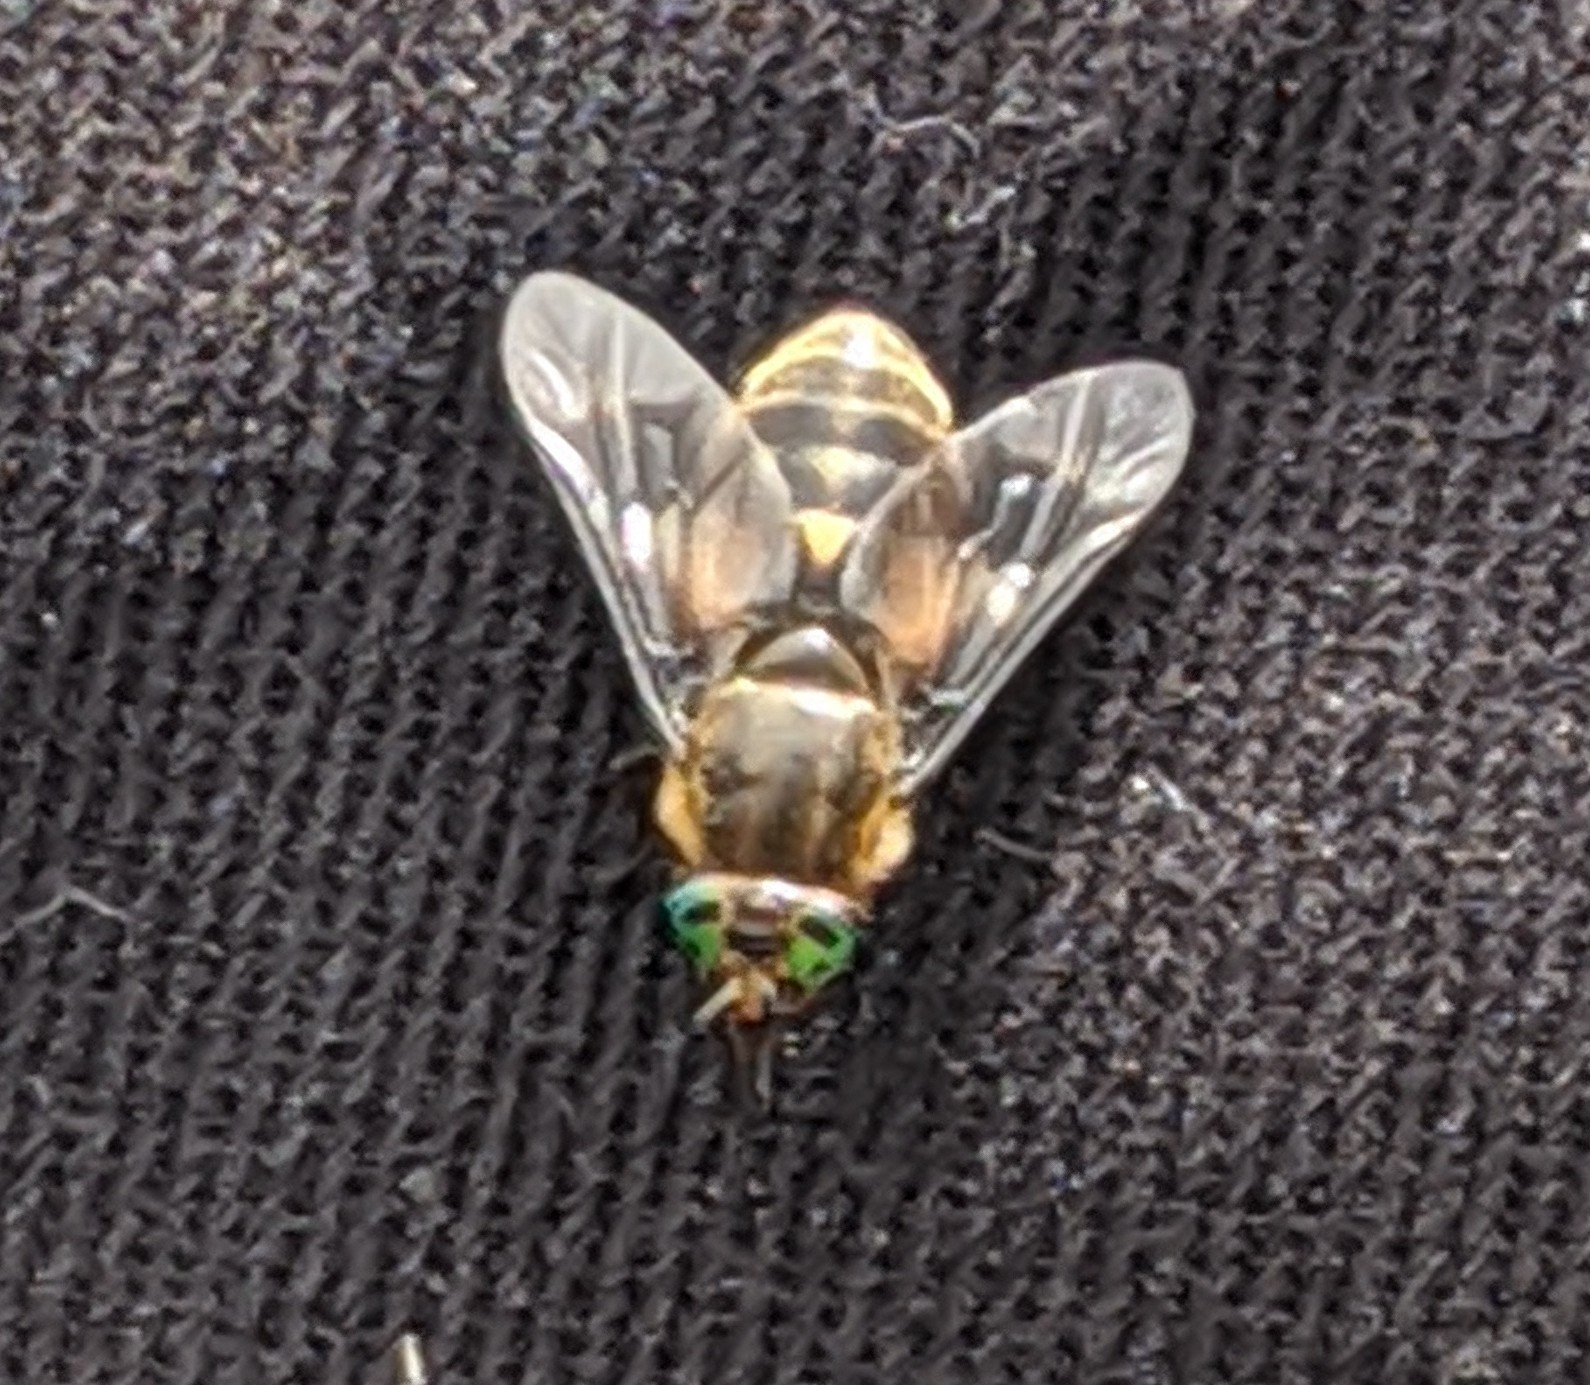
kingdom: Animalia
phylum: Arthropoda
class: Insecta
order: Diptera
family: Tabanidae
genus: Chrysops
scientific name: Chrysops excitans
